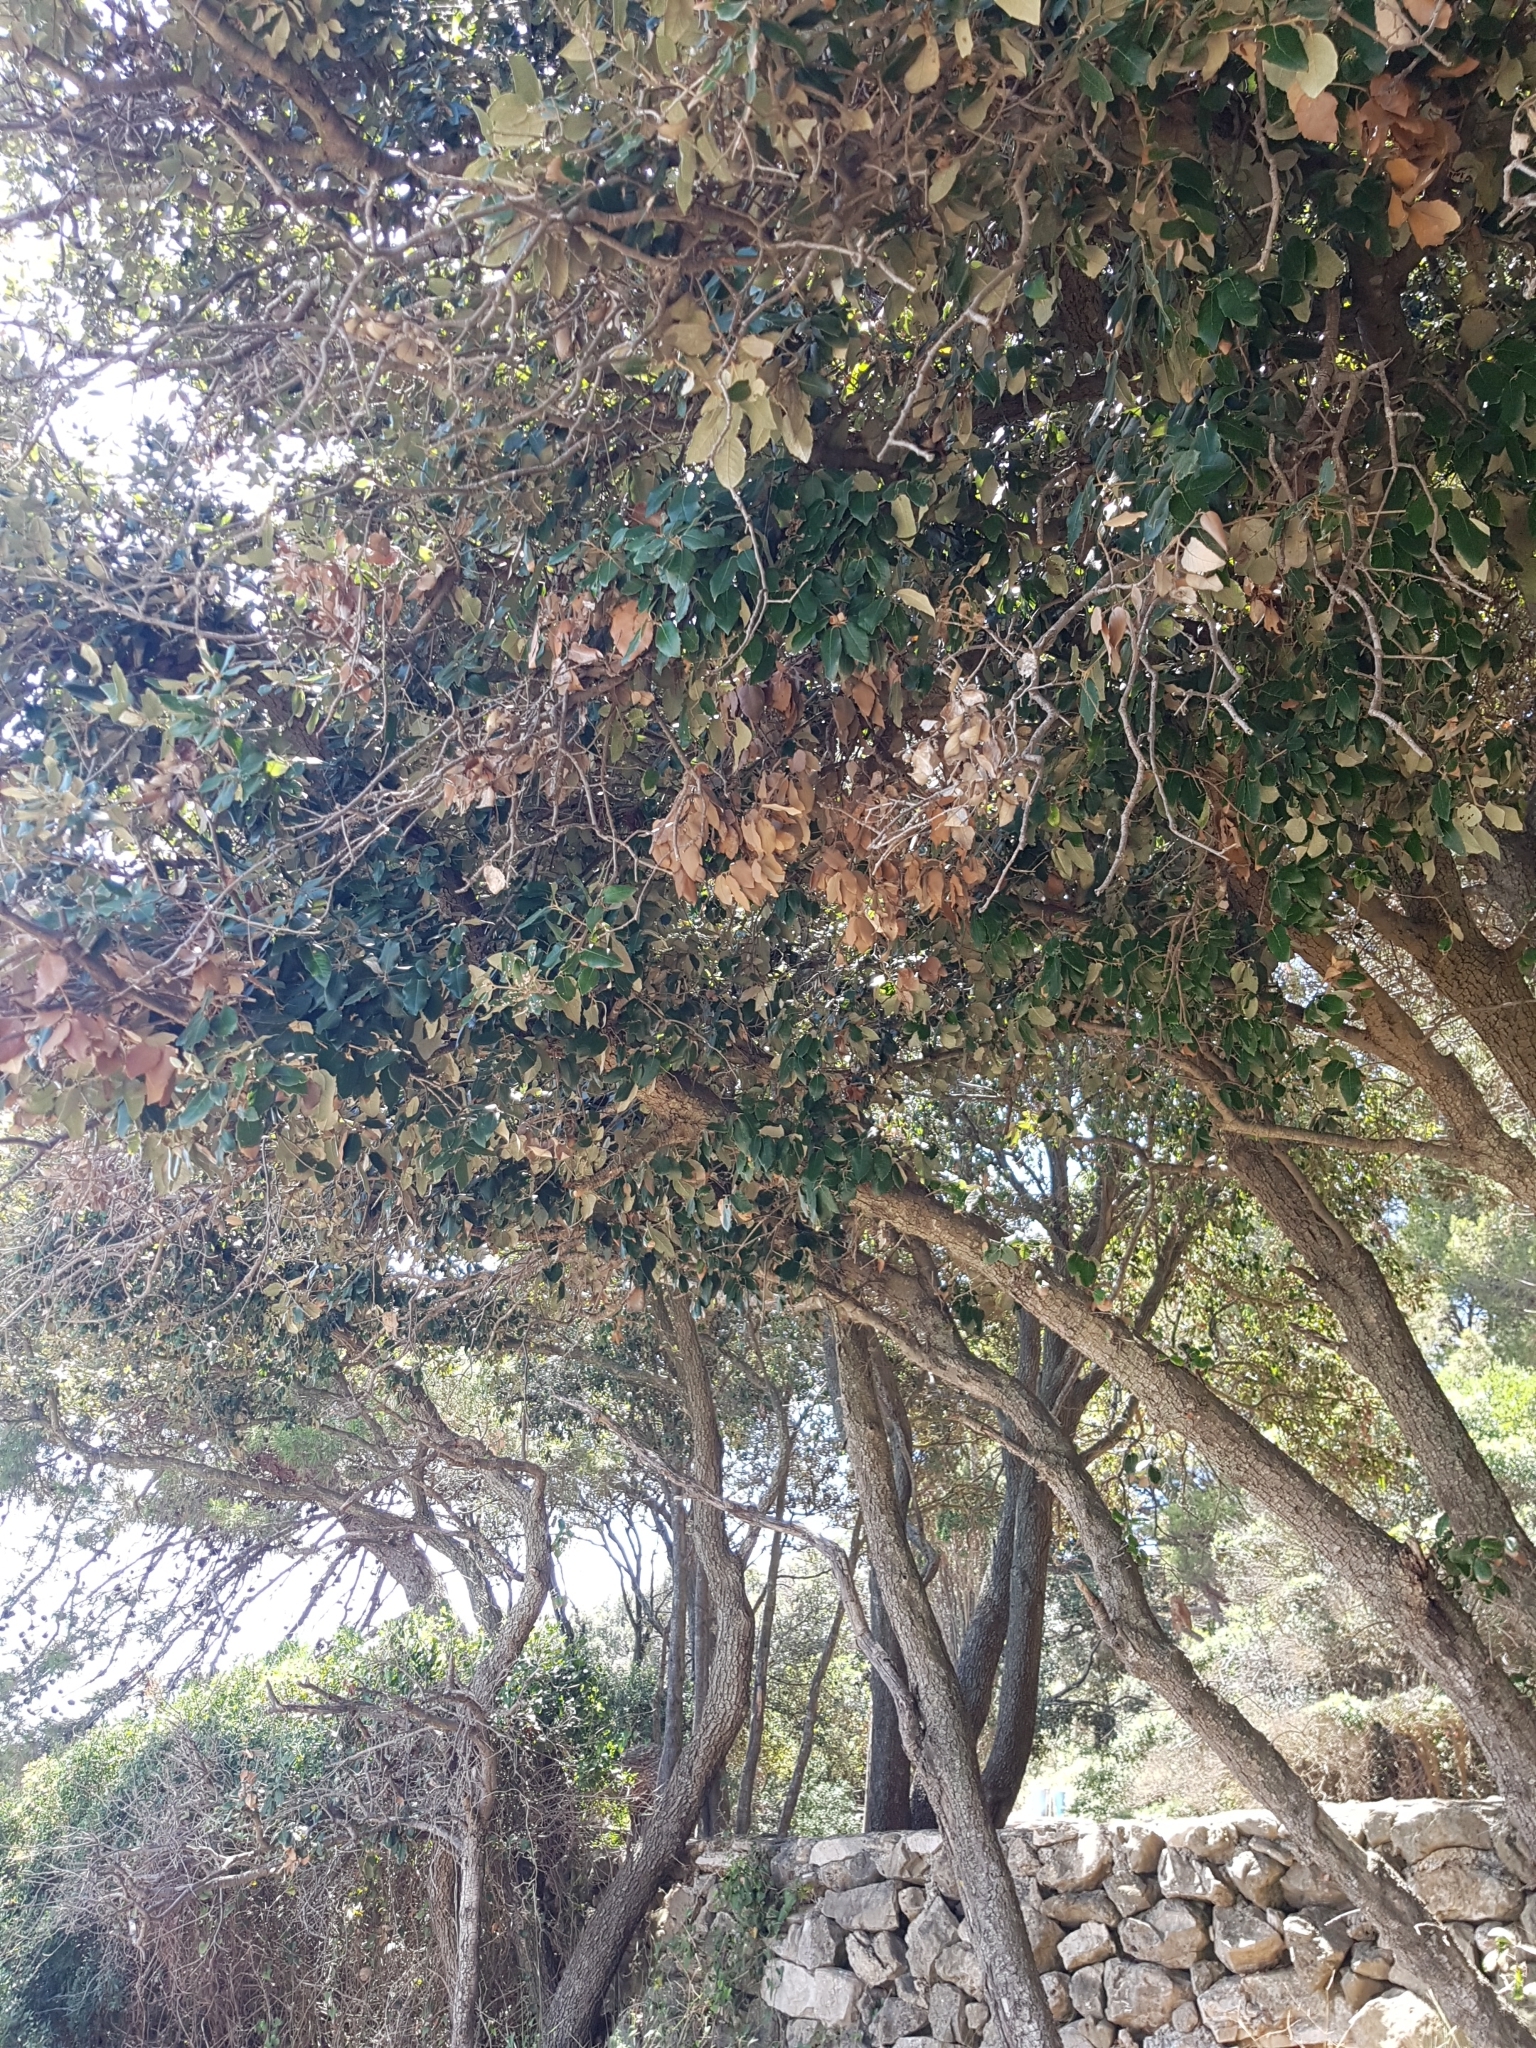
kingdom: Plantae
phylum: Tracheophyta
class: Magnoliopsida
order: Fagales
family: Fagaceae
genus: Quercus
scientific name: Quercus ilex
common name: Evergreen oak
